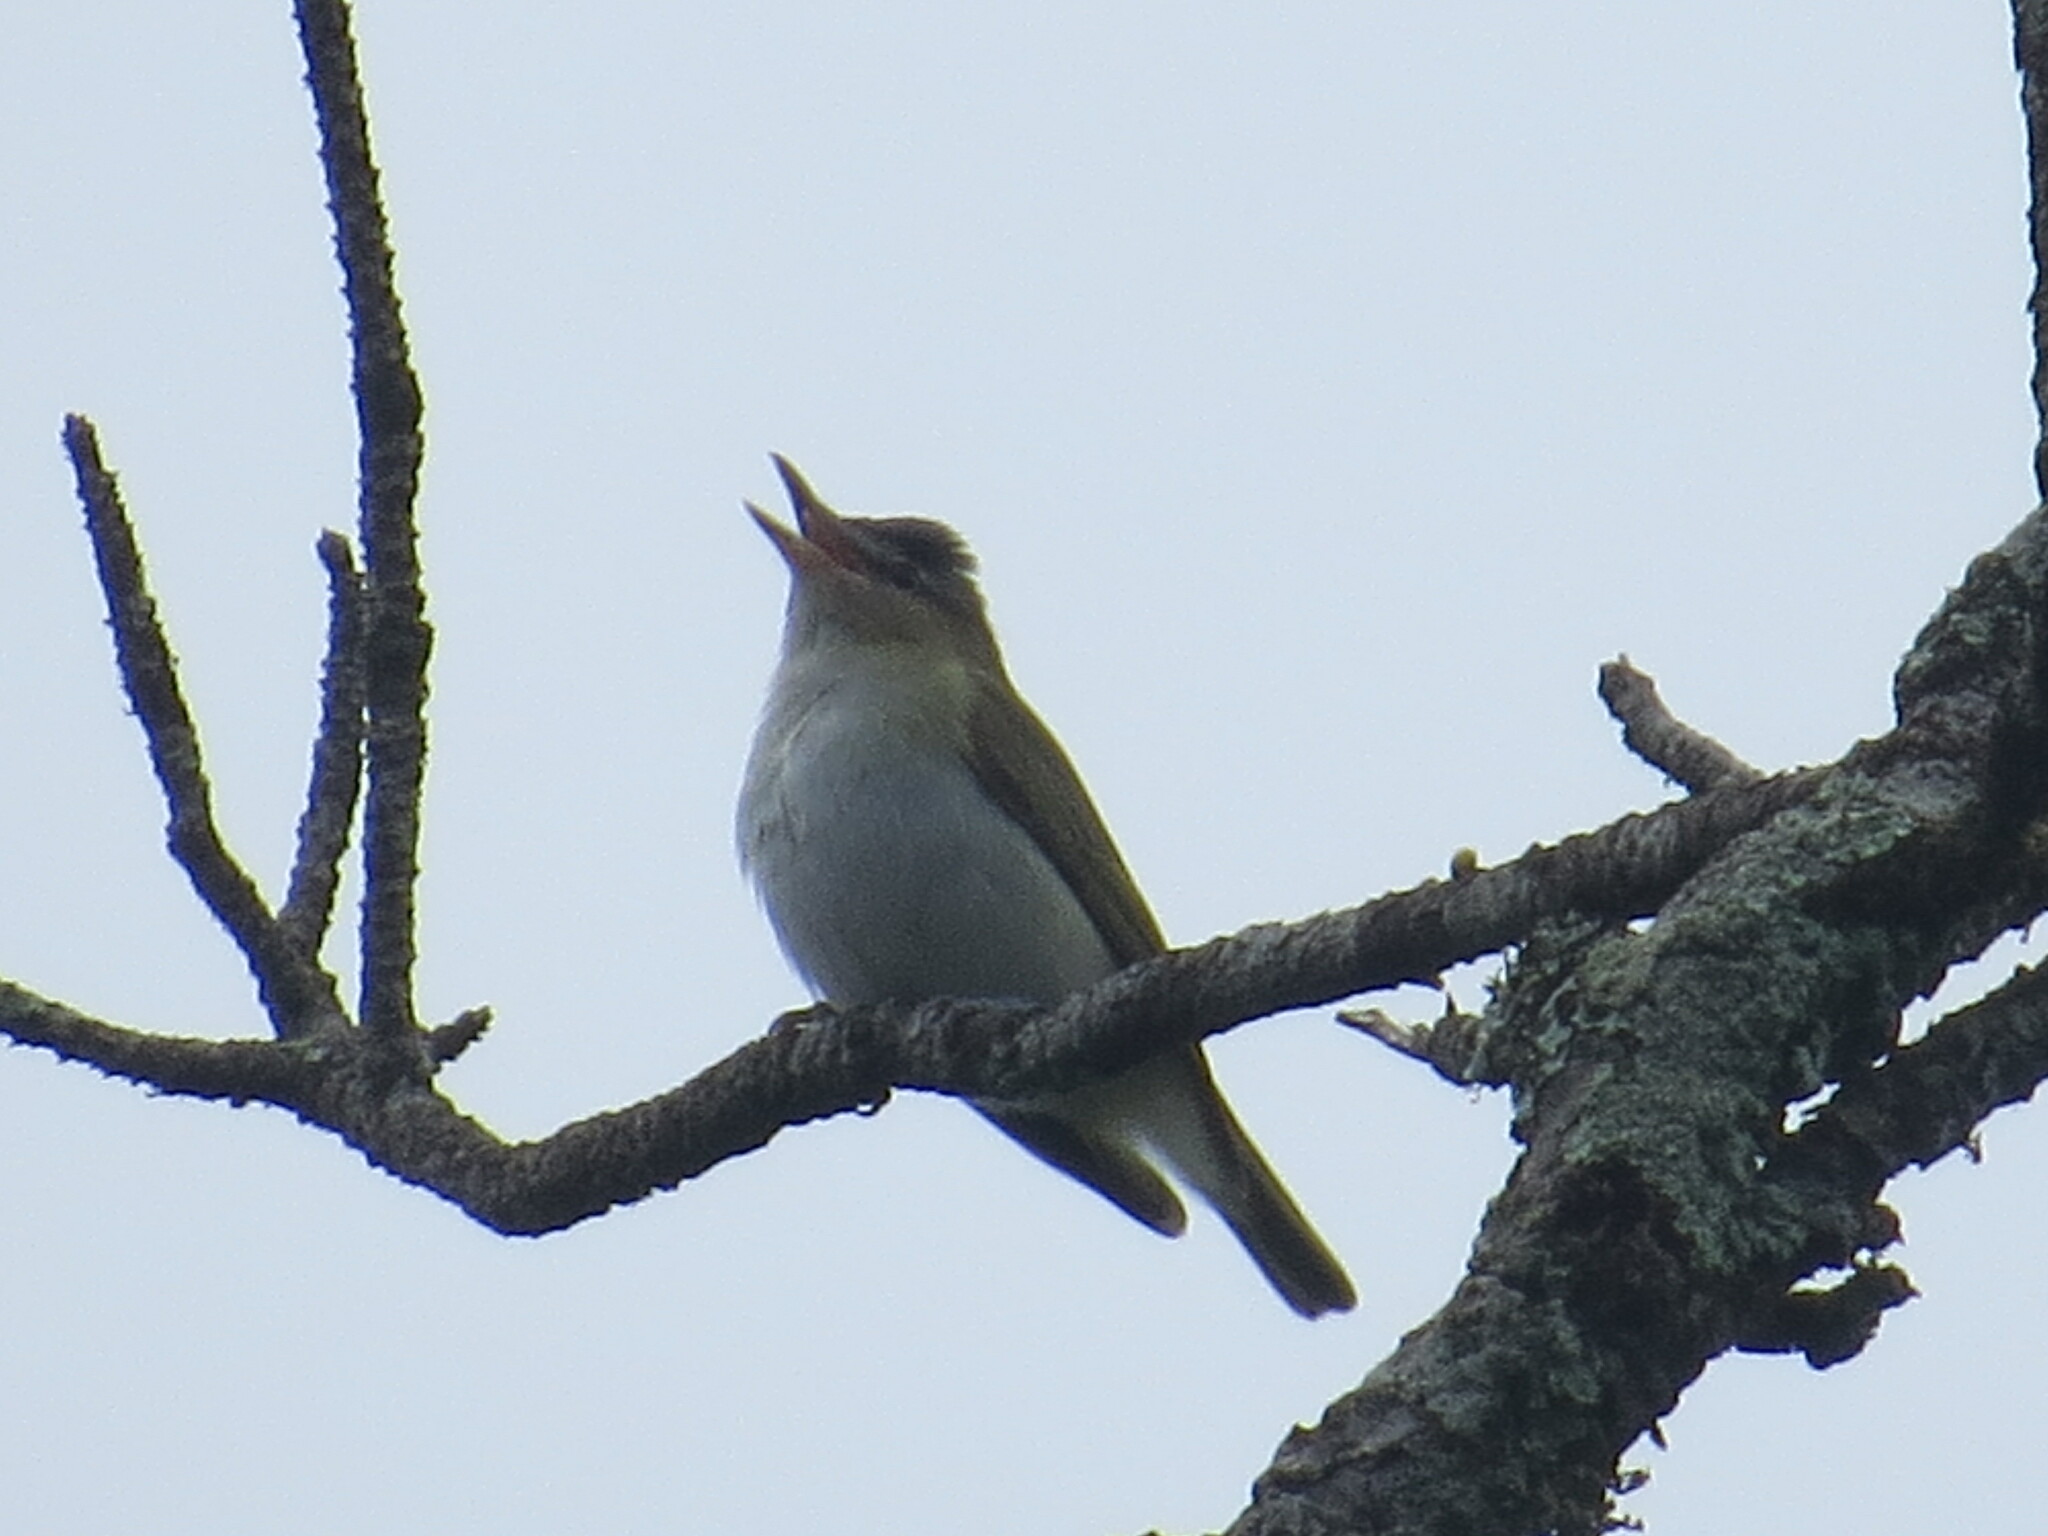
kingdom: Animalia
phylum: Chordata
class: Aves
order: Passeriformes
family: Vireonidae
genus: Vireo
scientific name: Vireo olivaceus
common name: Red-eyed vireo
